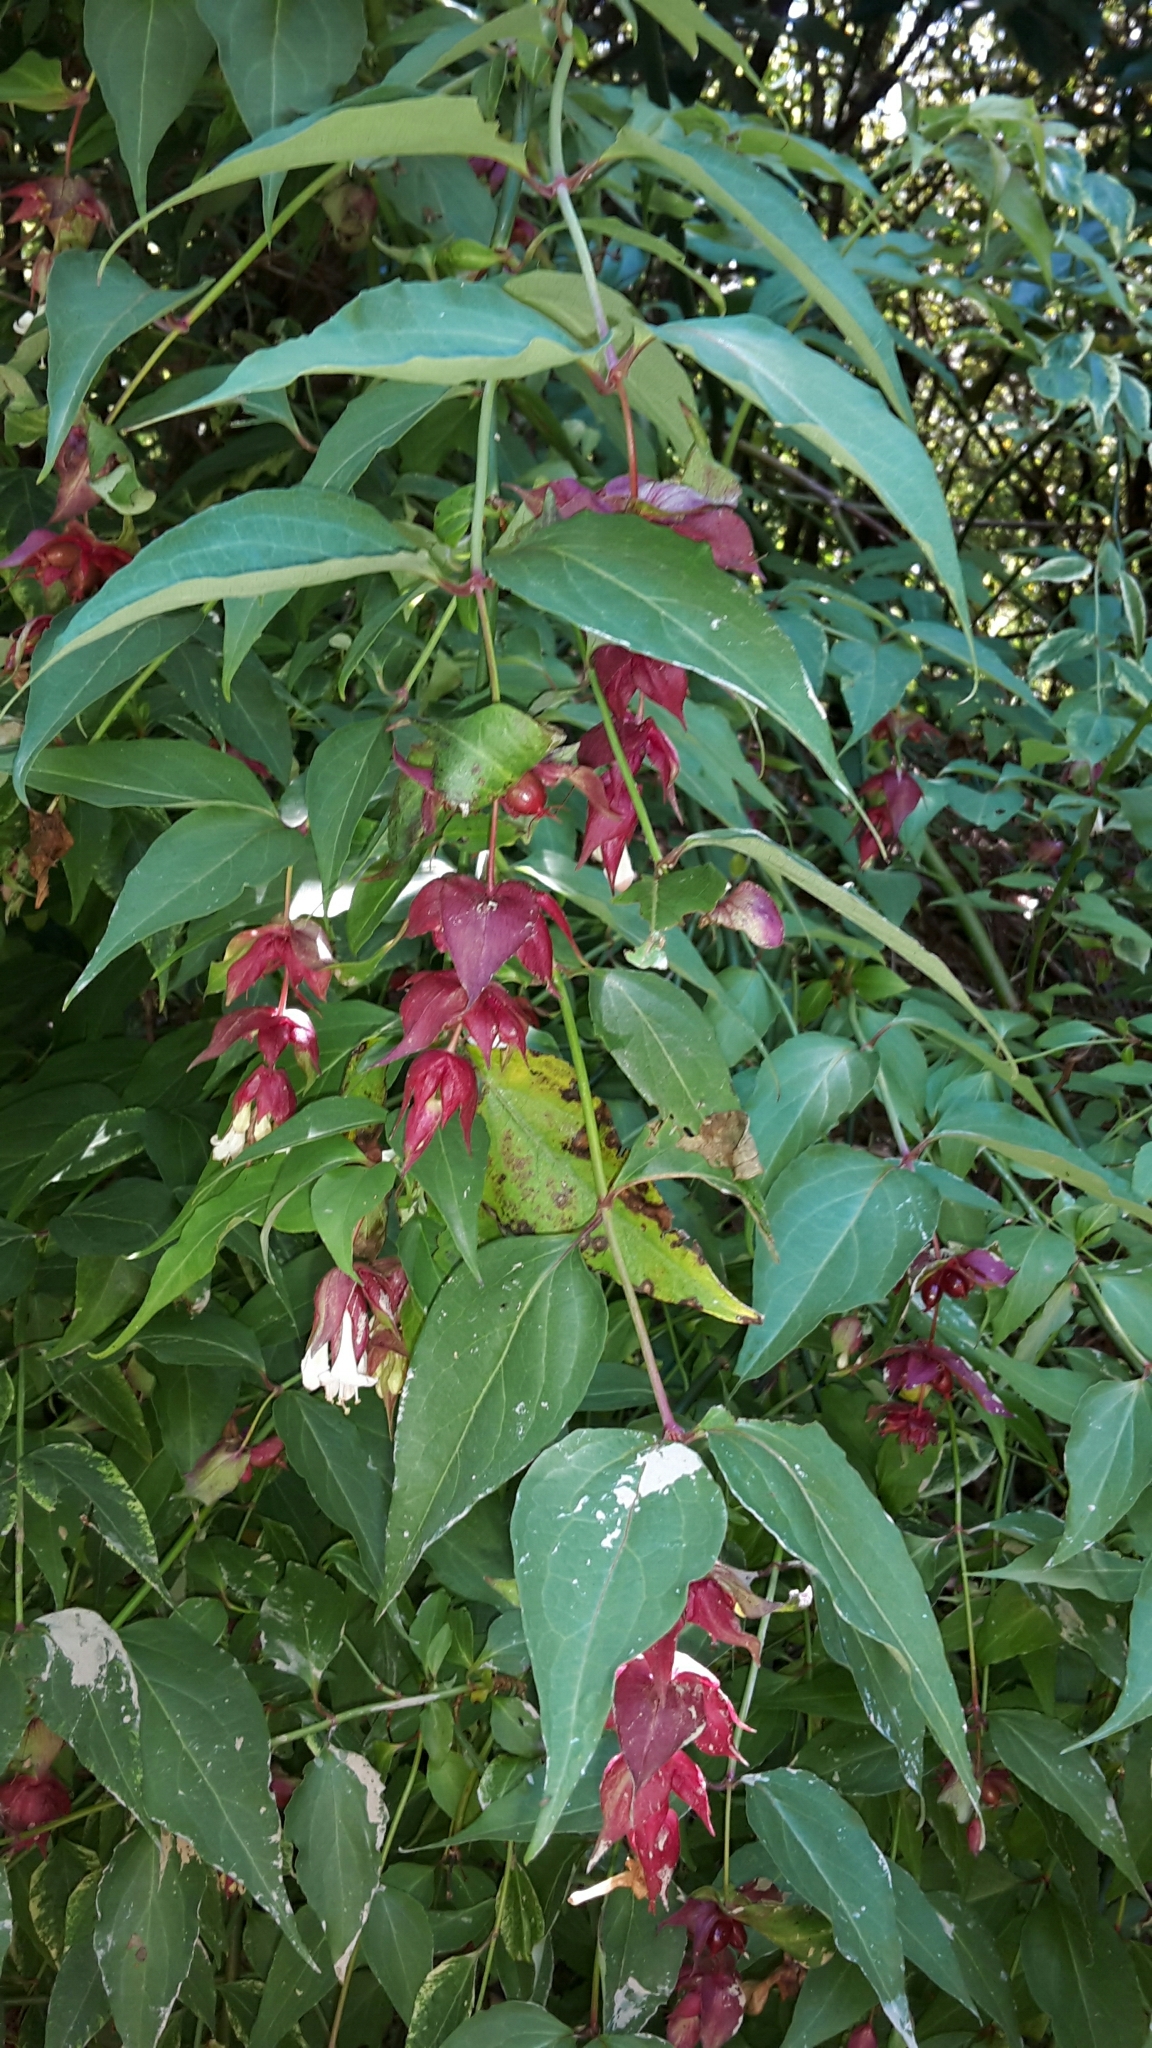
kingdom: Plantae
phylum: Tracheophyta
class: Magnoliopsida
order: Dipsacales
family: Caprifoliaceae
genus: Leycesteria
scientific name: Leycesteria formosa
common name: Himalayan honeysuckle
